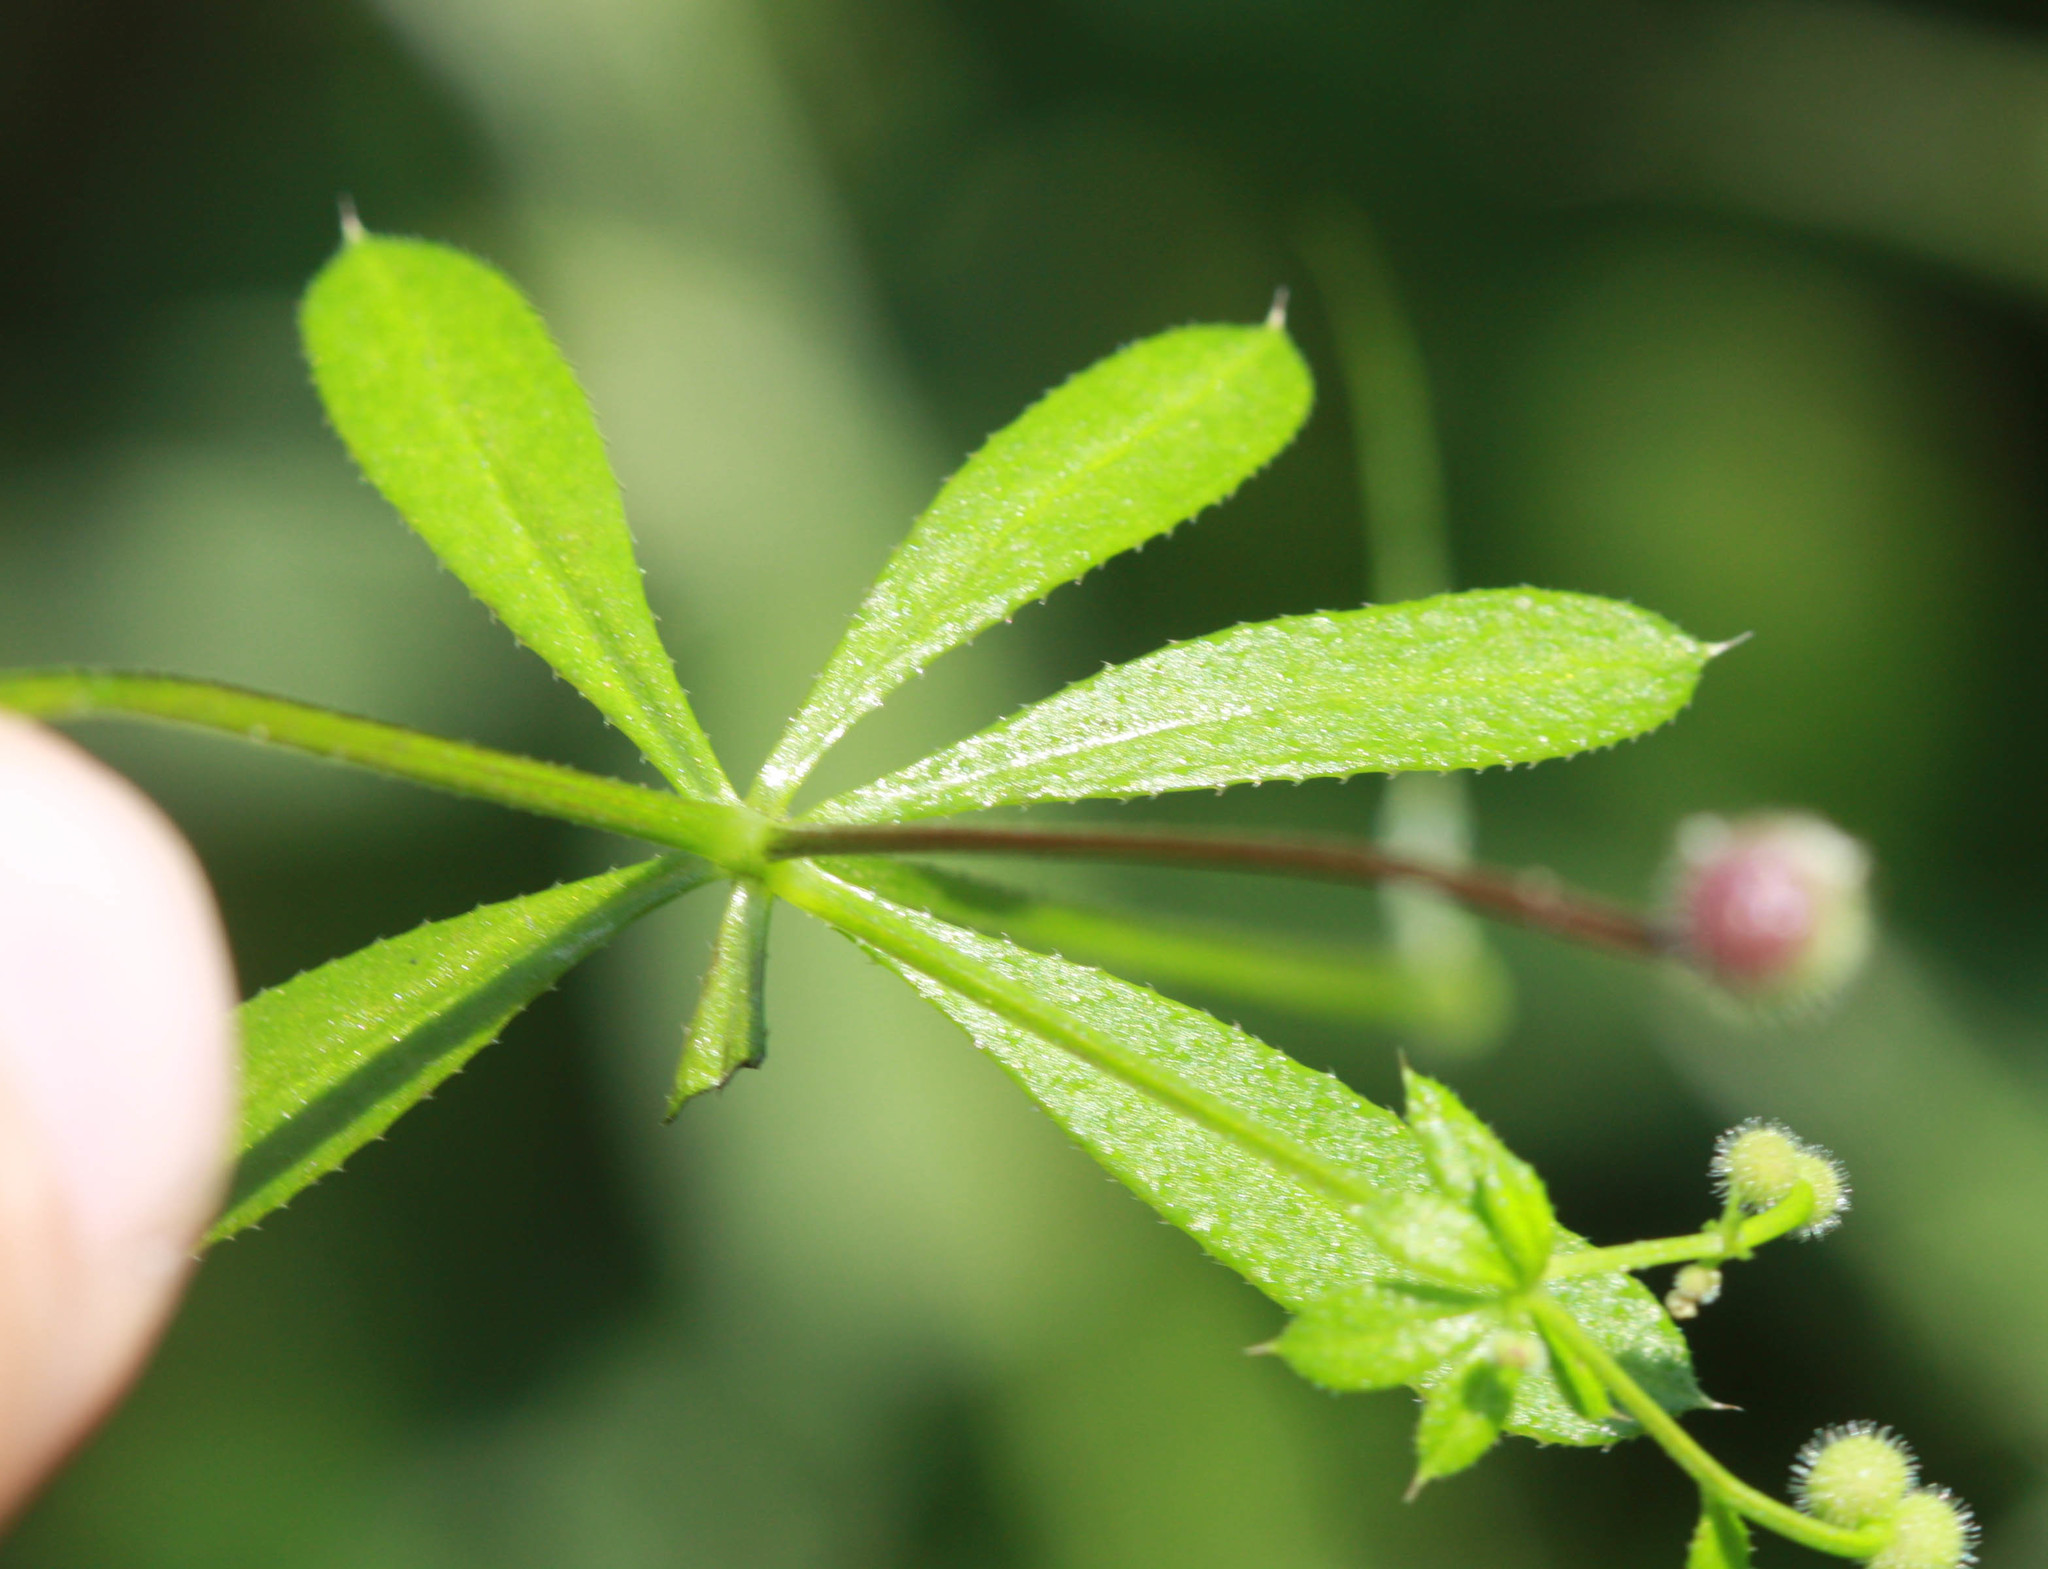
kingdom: Plantae
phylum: Tracheophyta
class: Magnoliopsida
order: Gentianales
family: Rubiaceae
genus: Galium
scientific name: Galium aparine
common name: Cleavers
